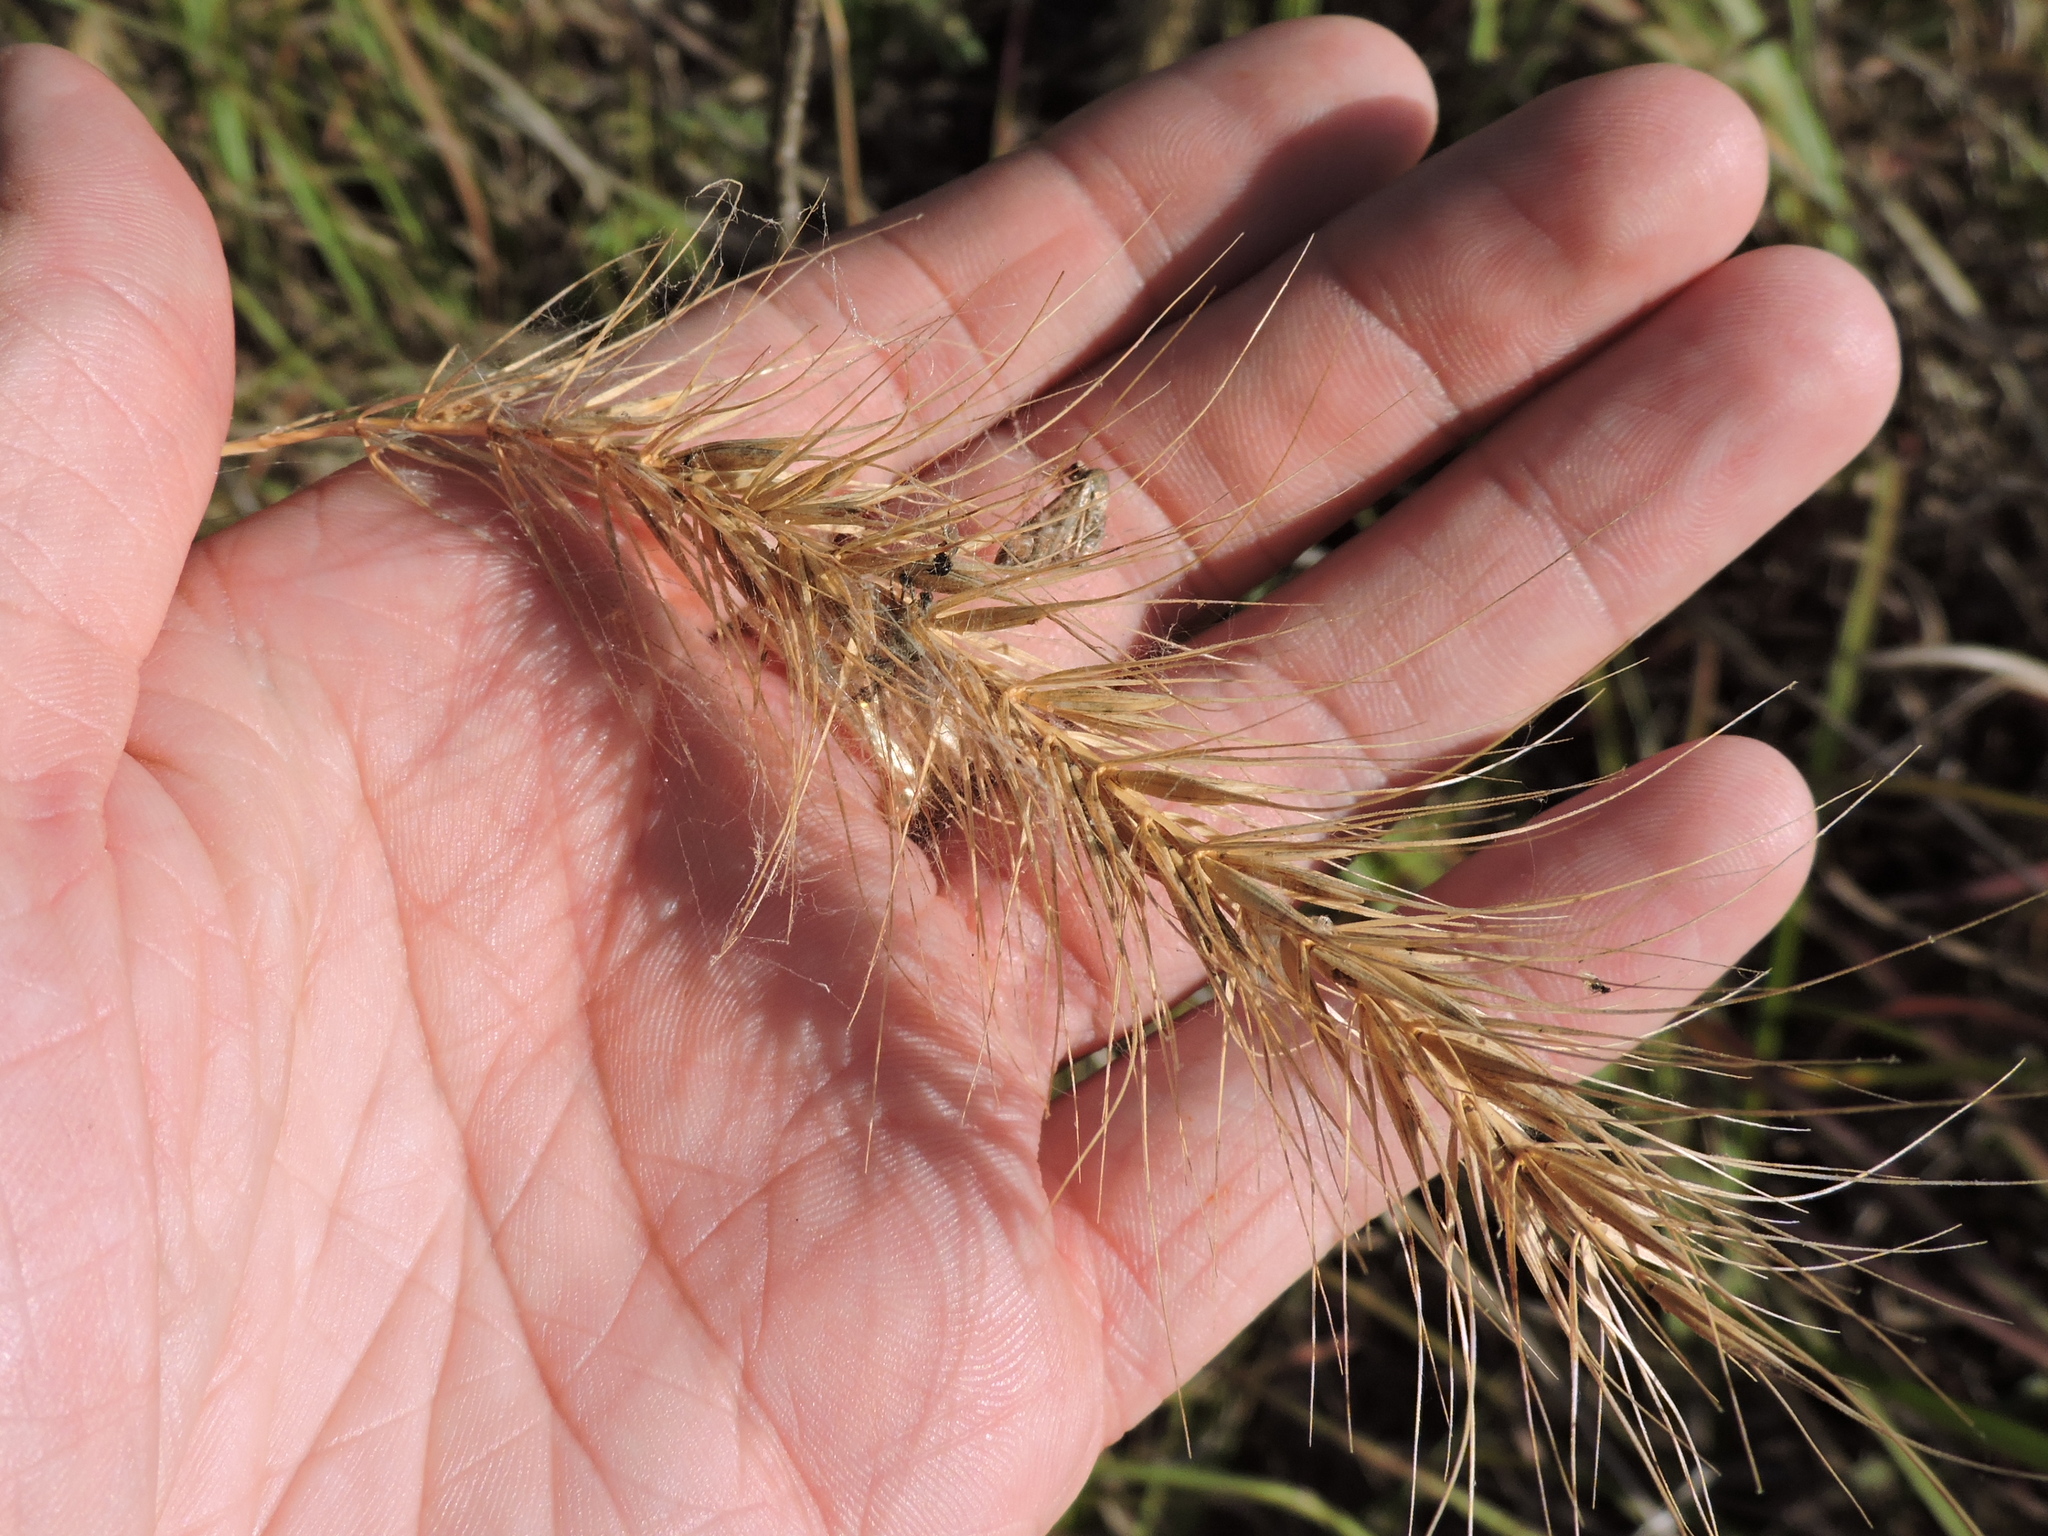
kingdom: Plantae
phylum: Tracheophyta
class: Liliopsida
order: Poales
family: Poaceae
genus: Elymus
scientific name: Elymus canadensis
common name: Canada wild rye
